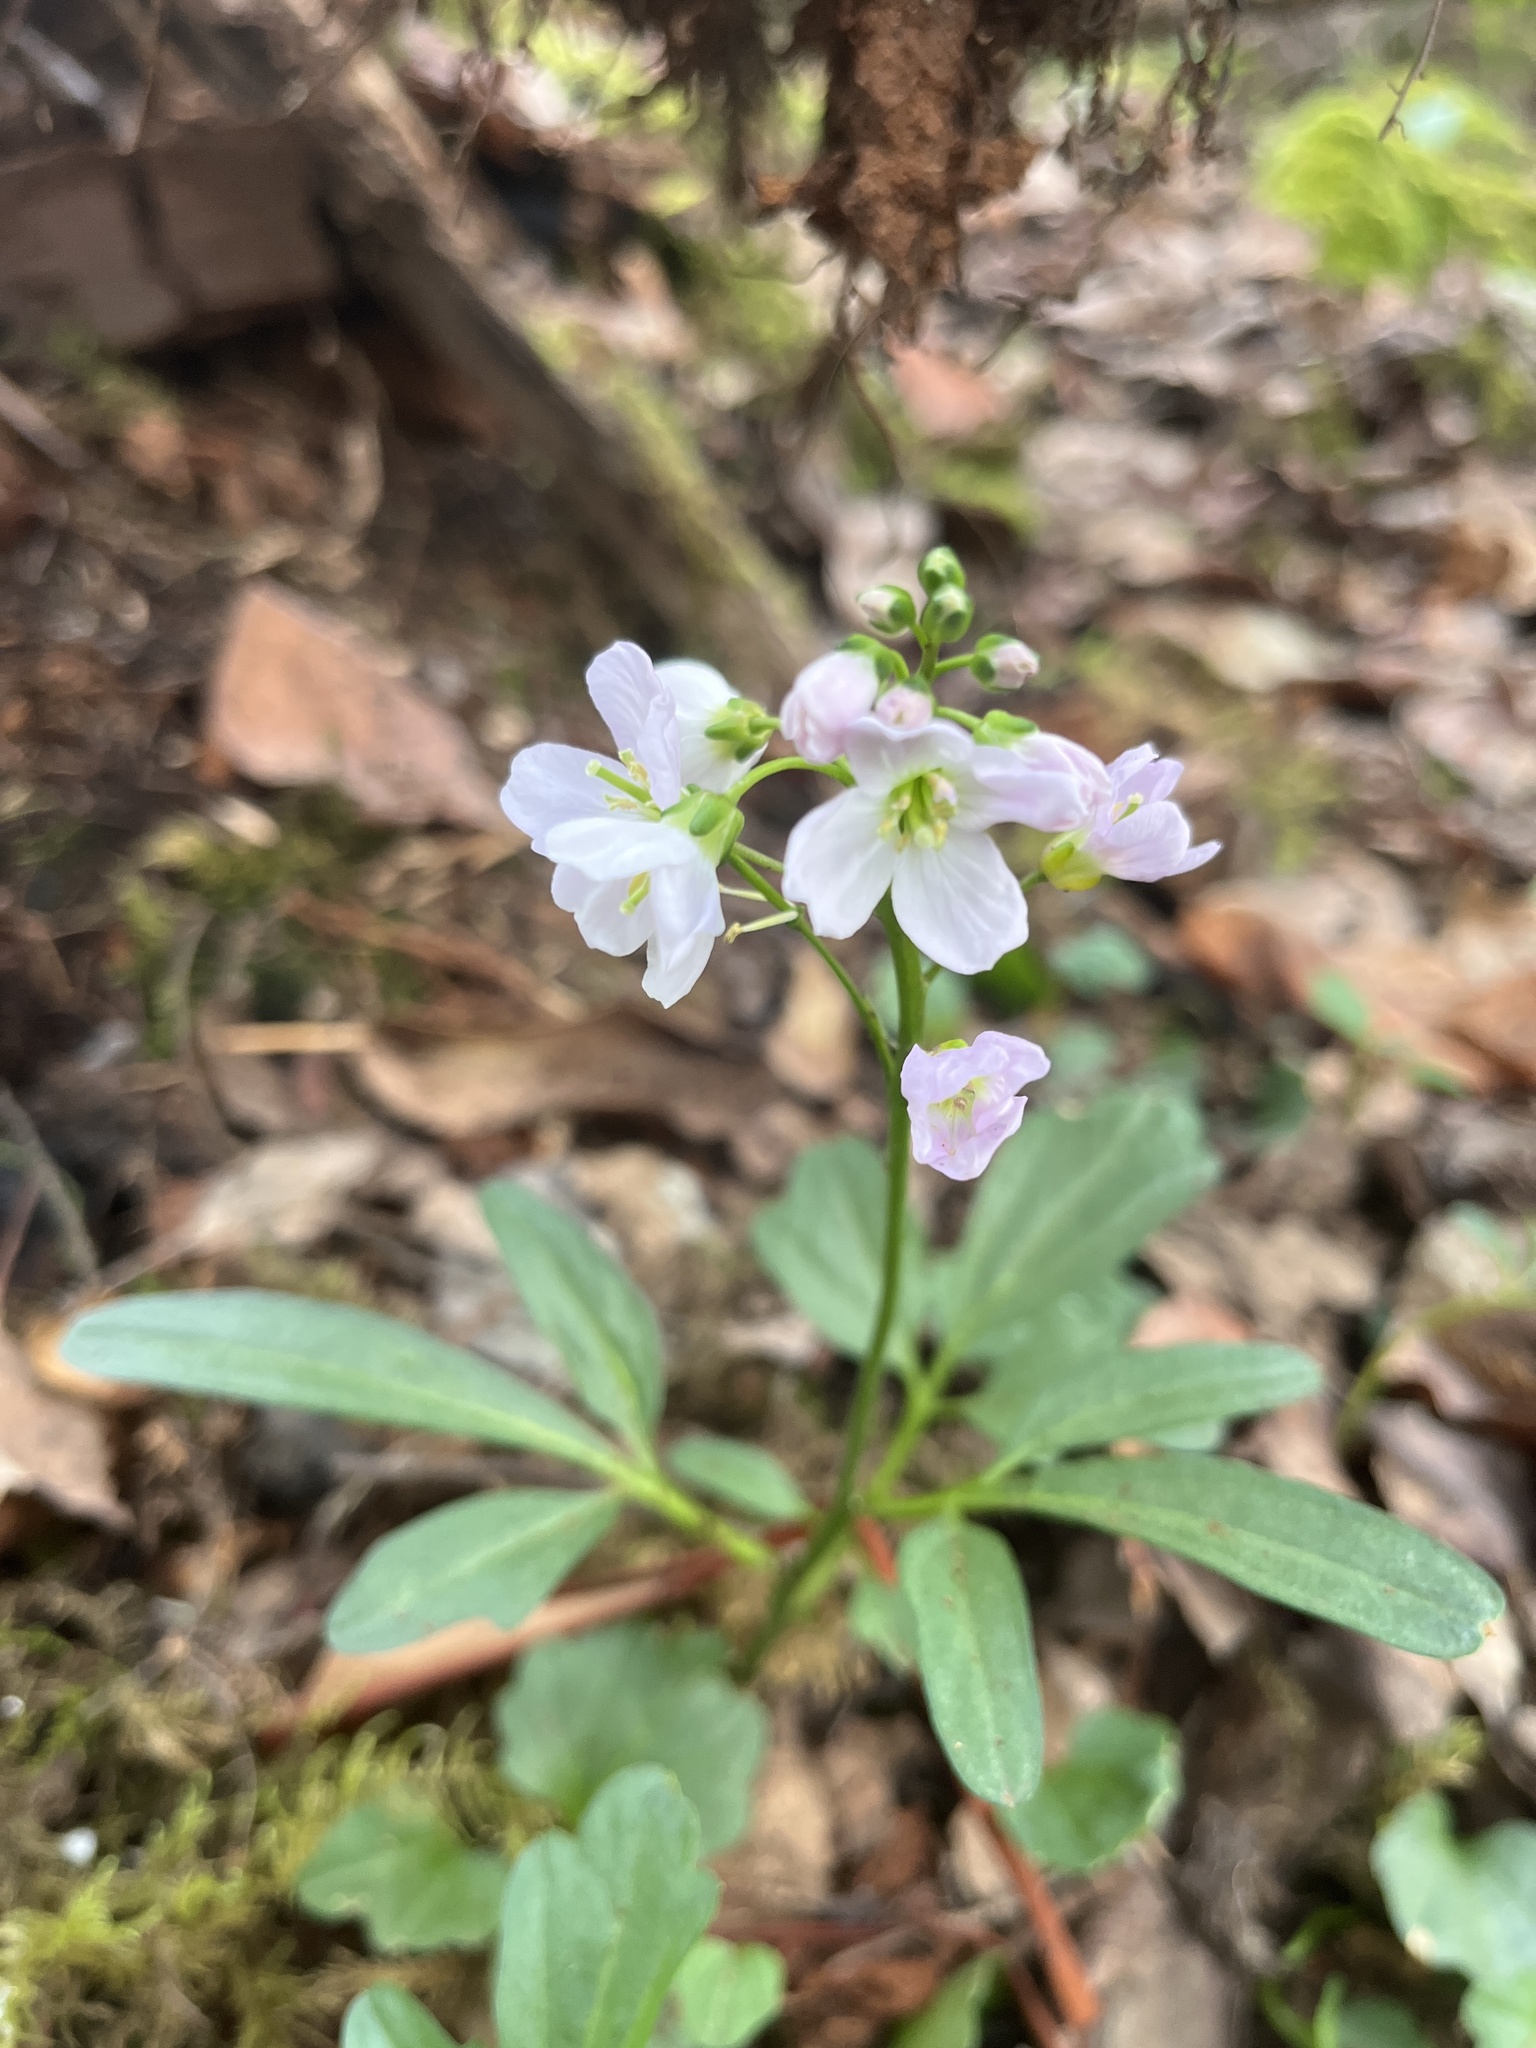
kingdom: Plantae
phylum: Tracheophyta
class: Magnoliopsida
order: Brassicales
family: Brassicaceae
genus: Cardamine
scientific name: Cardamine nuttallii
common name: Nuttall's toothwort
